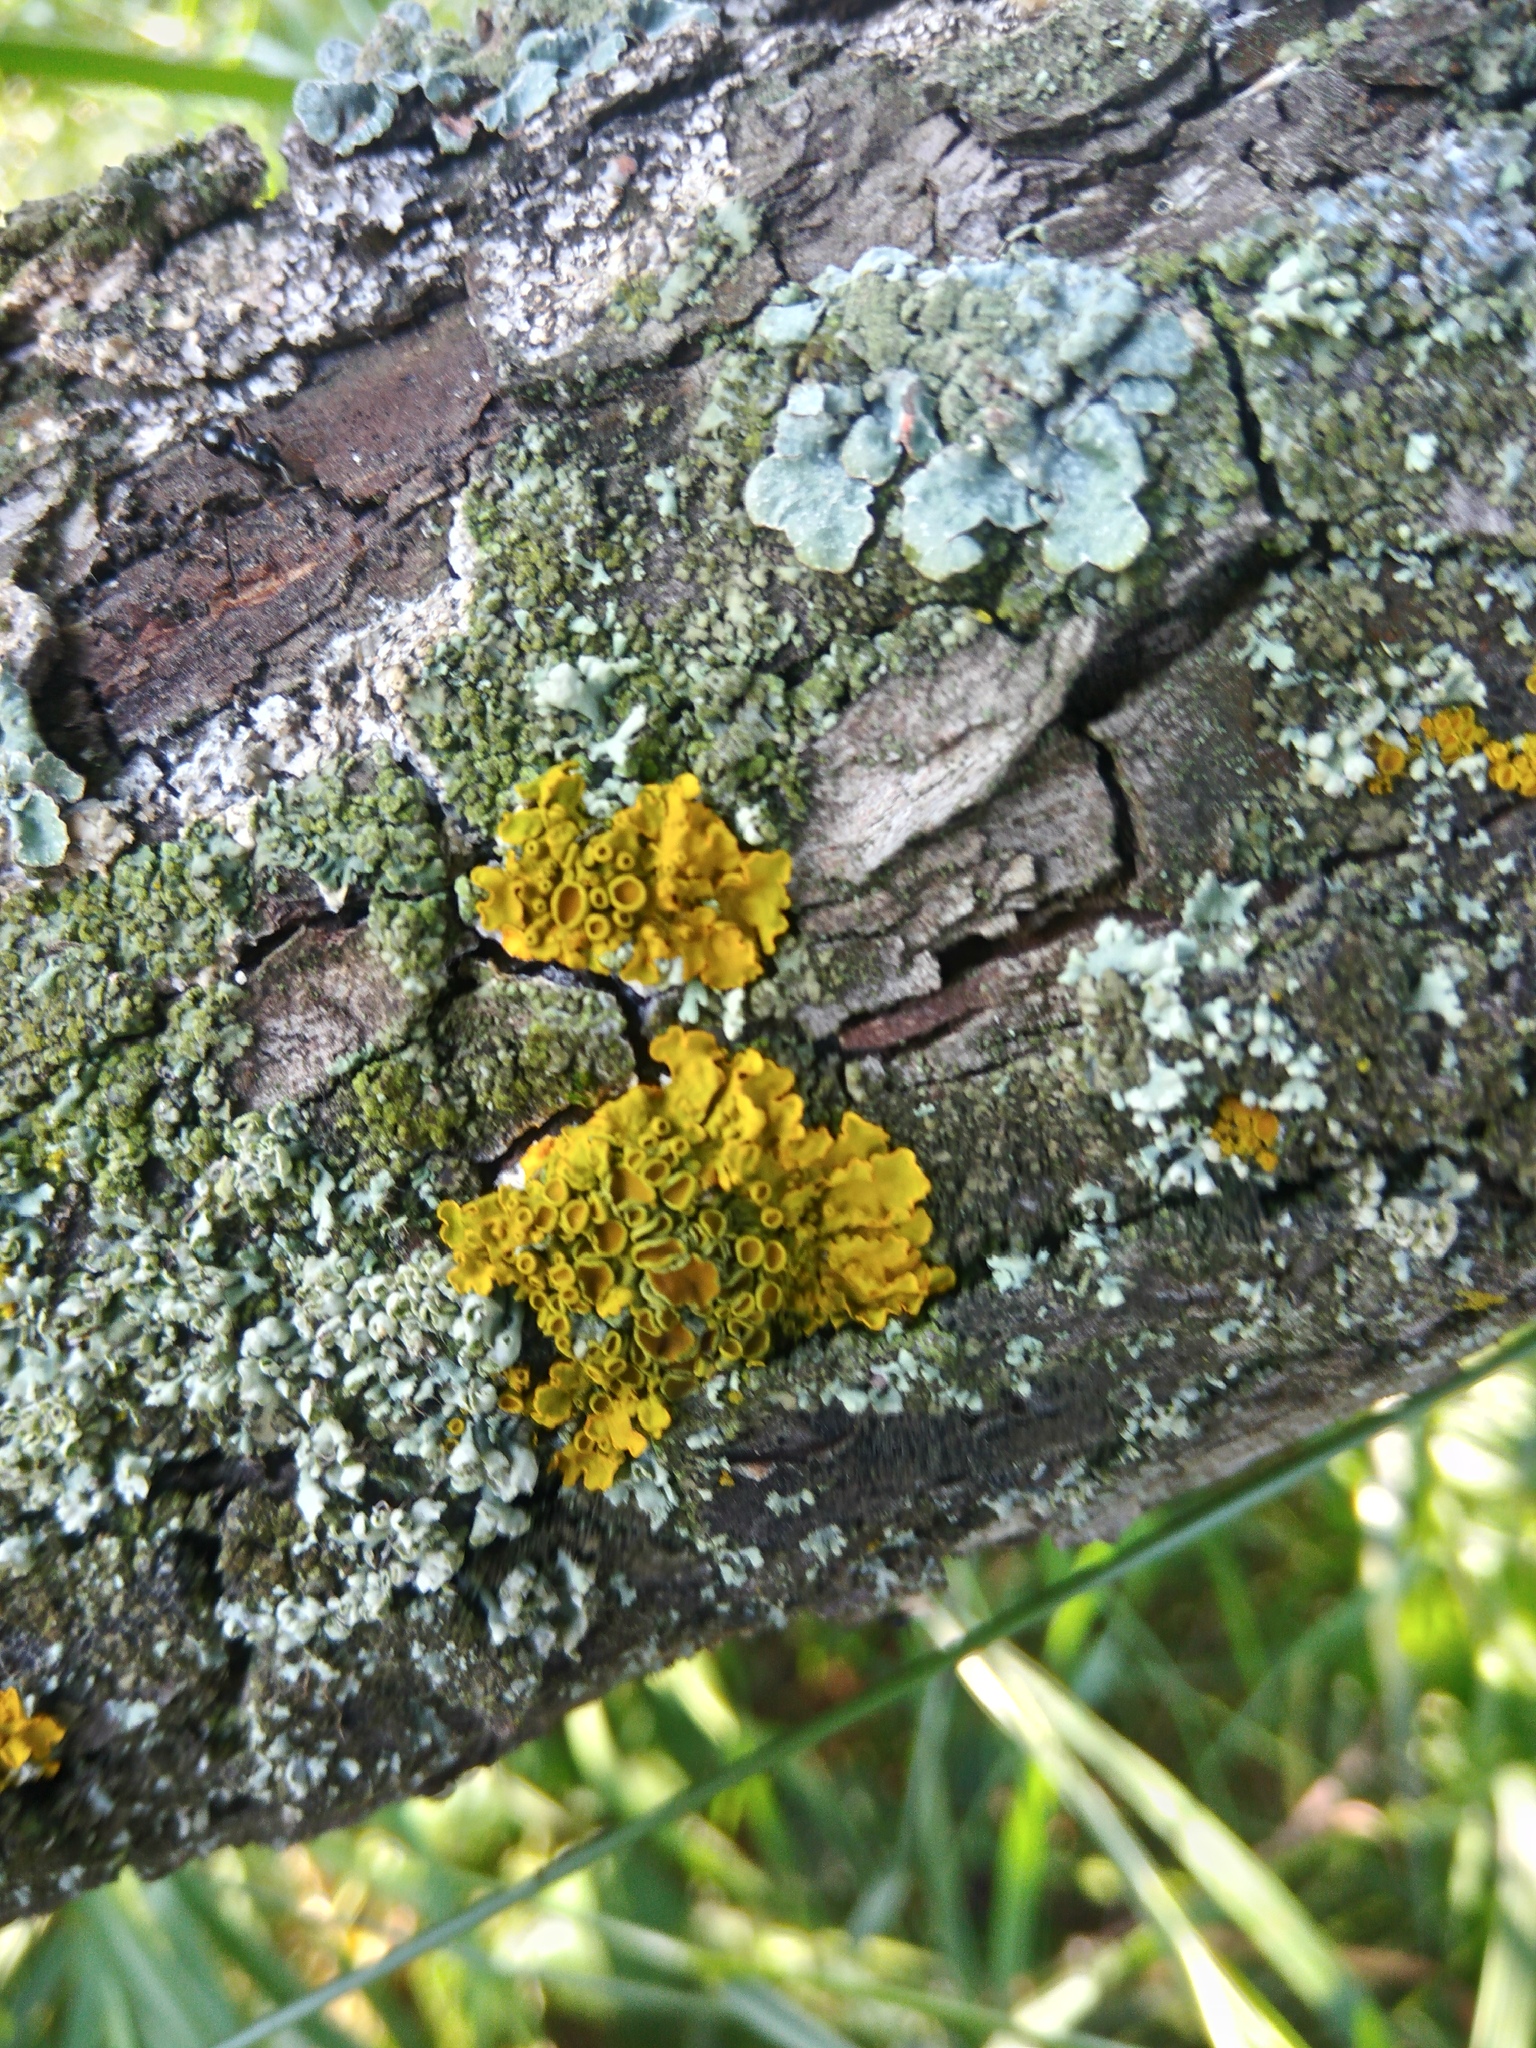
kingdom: Fungi
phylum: Ascomycota
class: Lecanoromycetes
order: Teloschistales
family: Teloschistaceae
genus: Xanthoria
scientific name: Xanthoria parietina
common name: Common orange lichen
